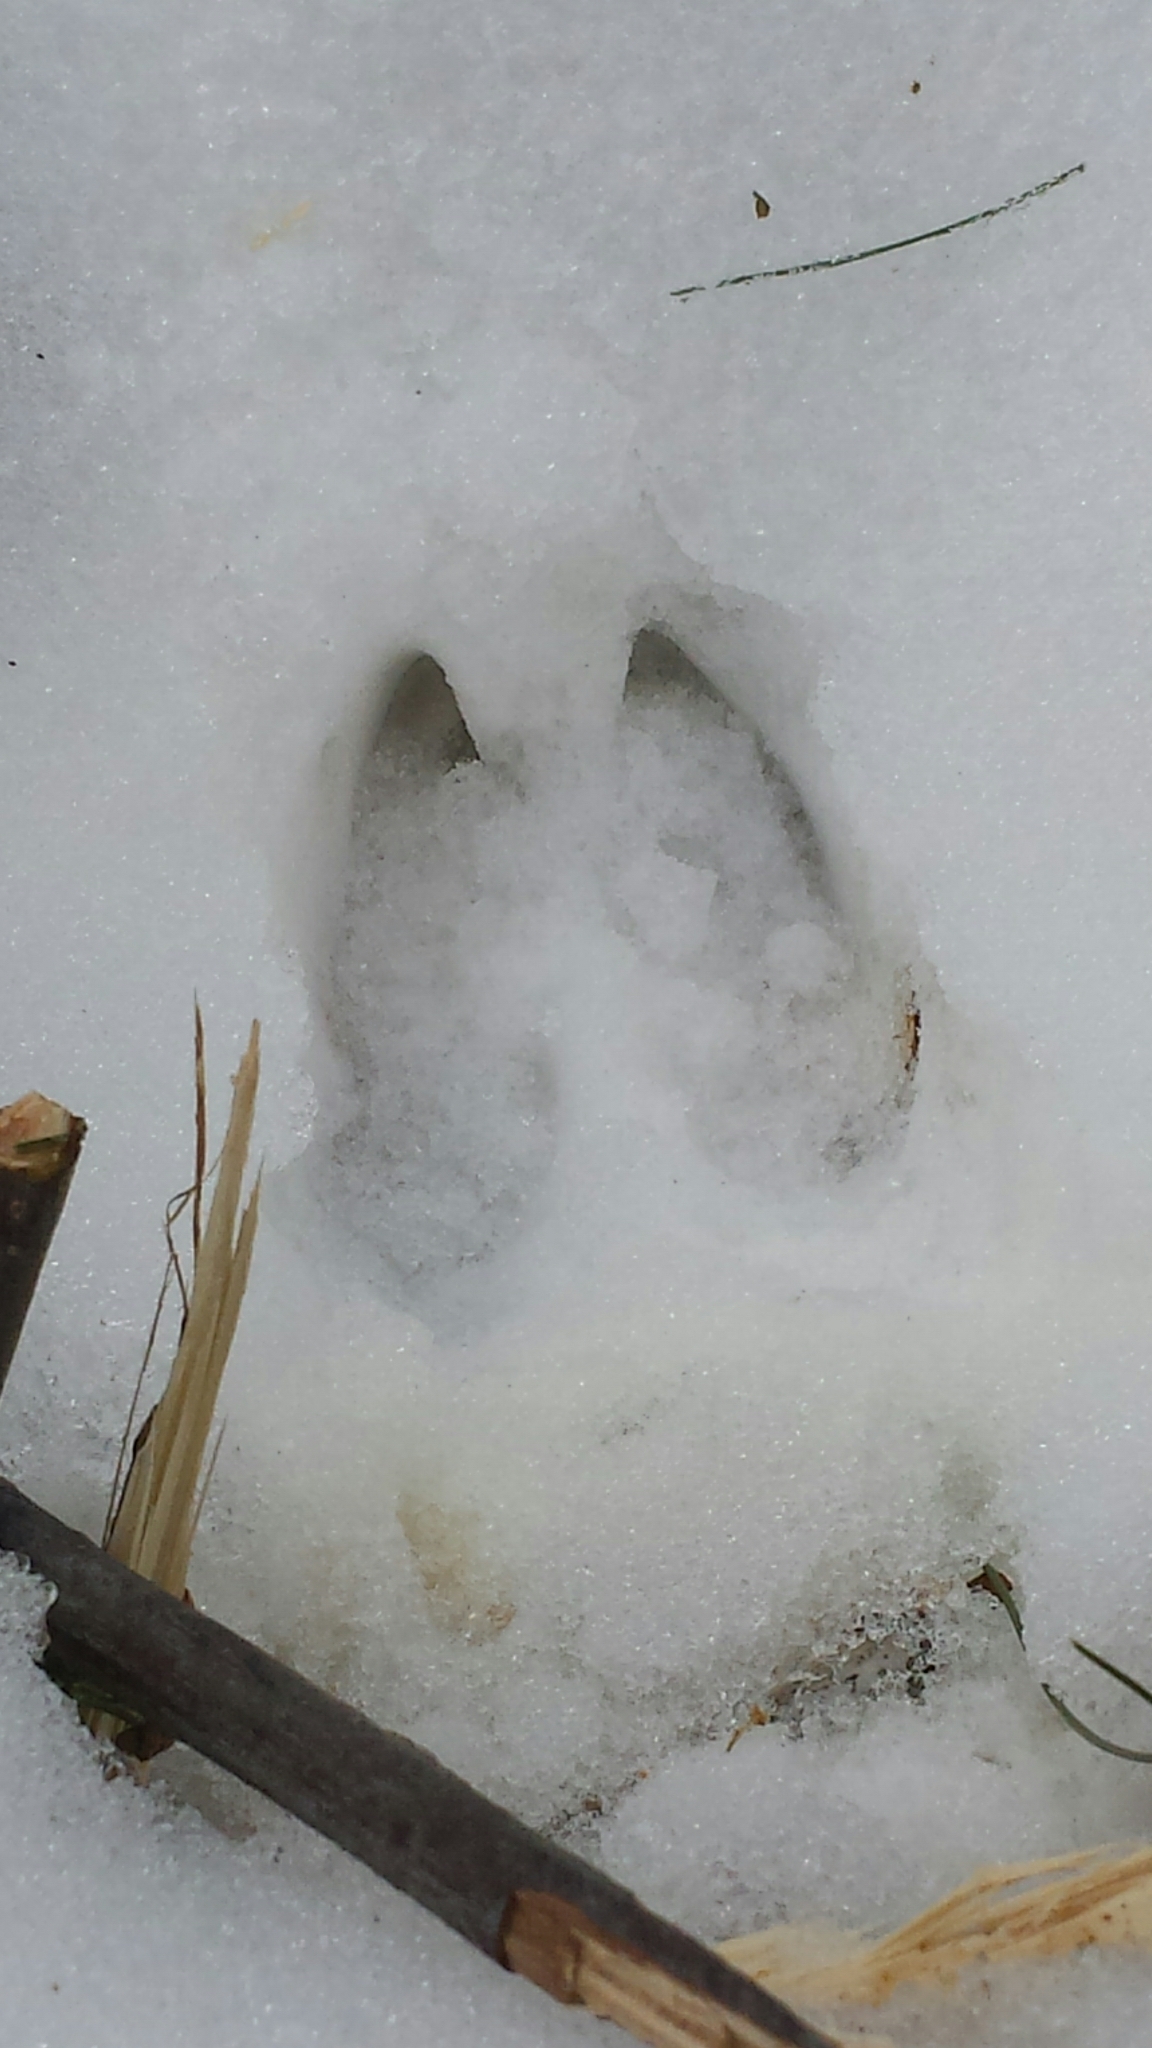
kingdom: Animalia
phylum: Chordata
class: Mammalia
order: Artiodactyla
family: Cervidae
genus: Odocoileus
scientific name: Odocoileus virginianus
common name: White-tailed deer
